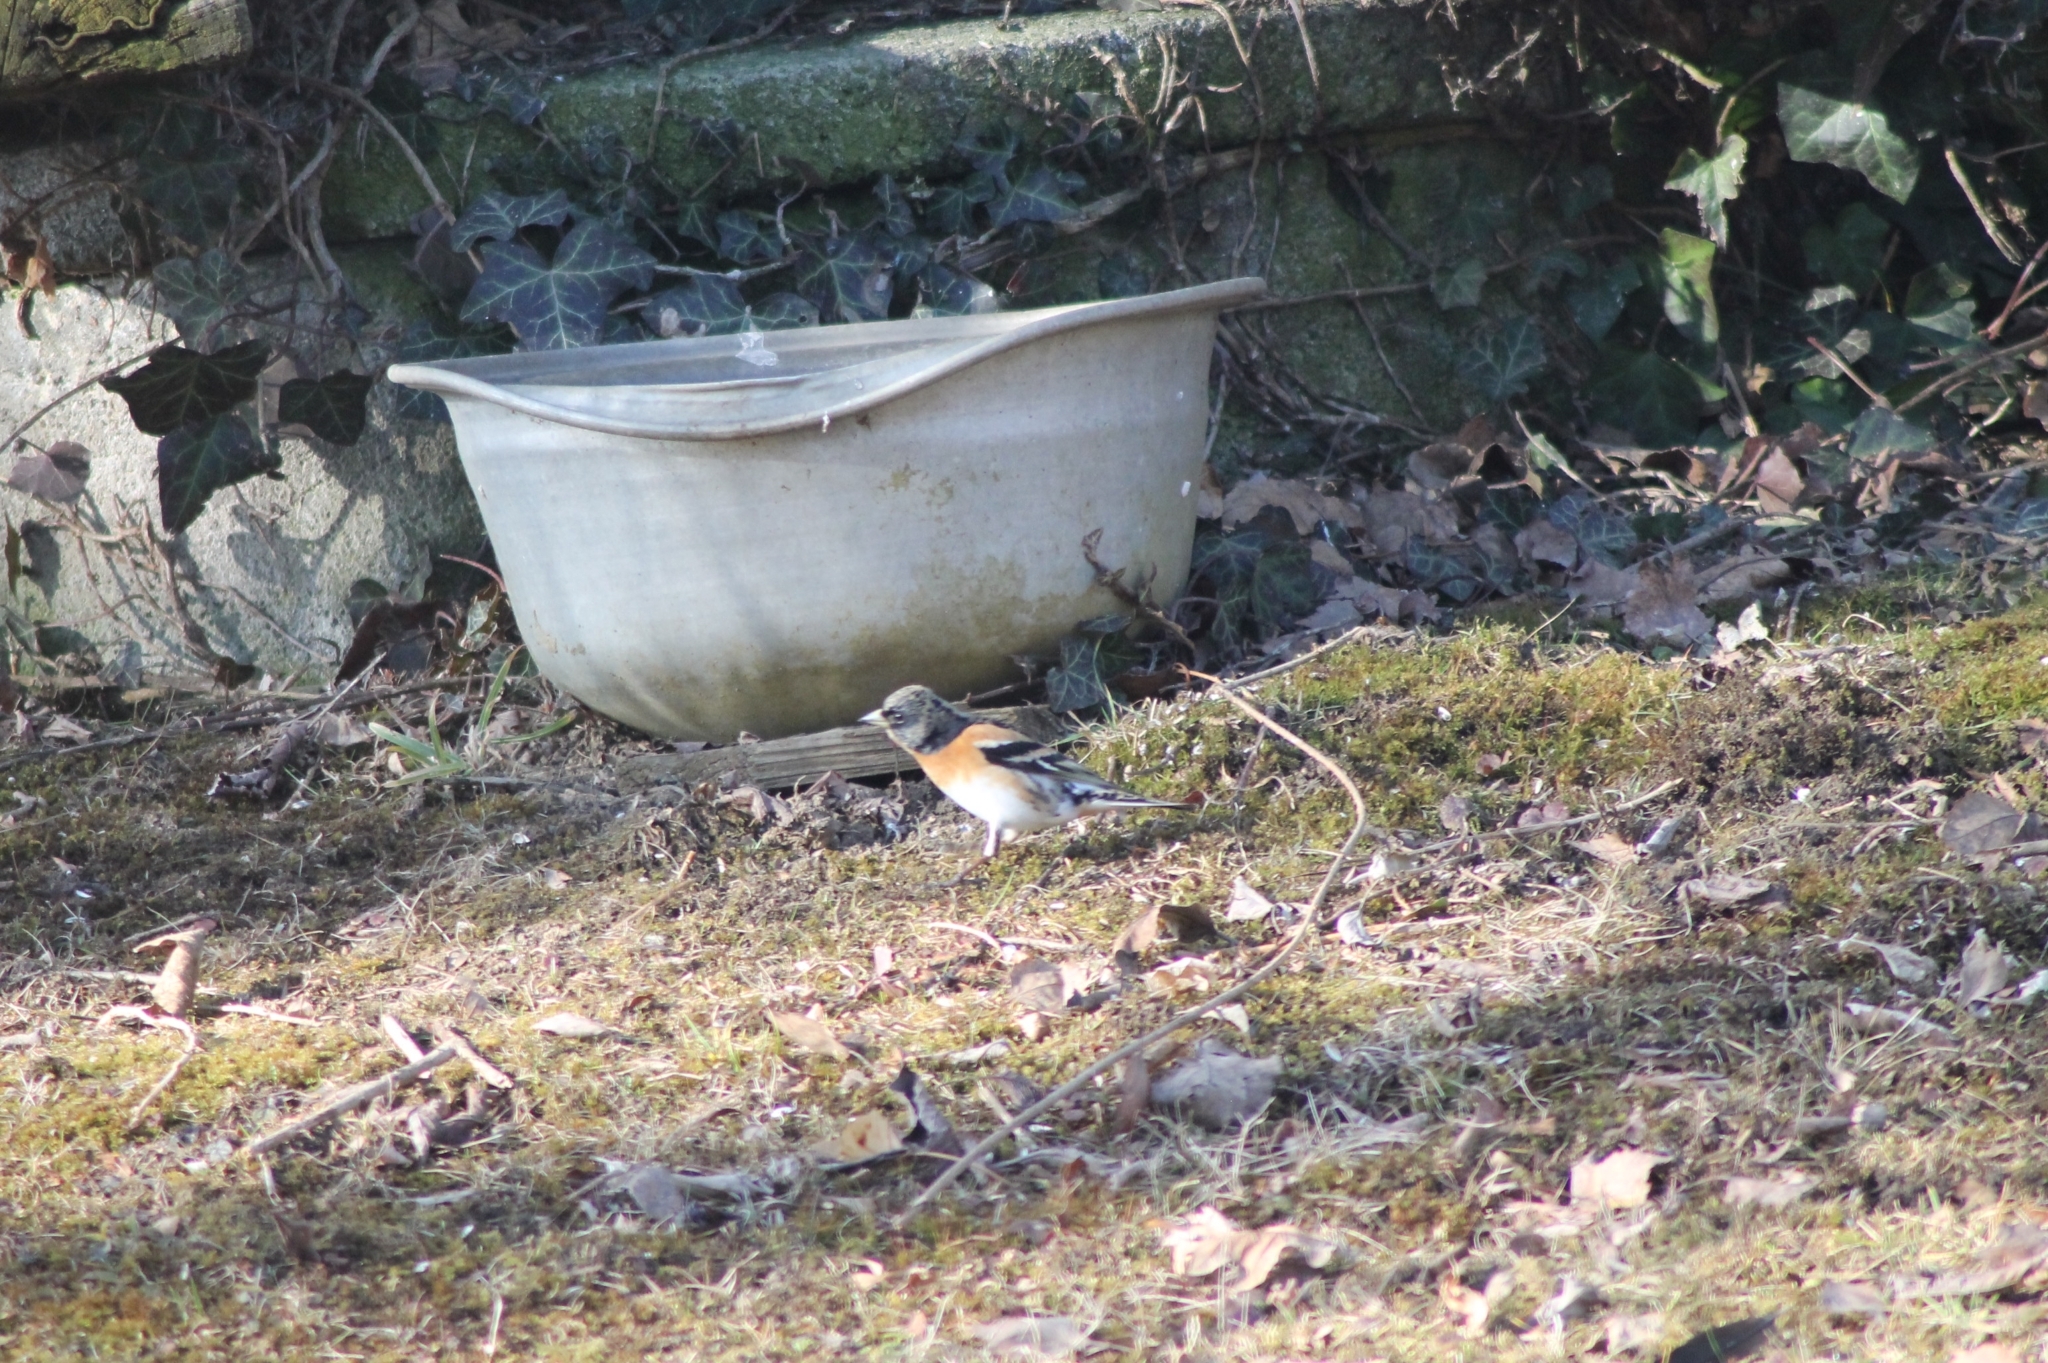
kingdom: Animalia
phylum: Chordata
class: Aves
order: Passeriformes
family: Fringillidae
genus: Fringilla
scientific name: Fringilla montifringilla
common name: Brambling
